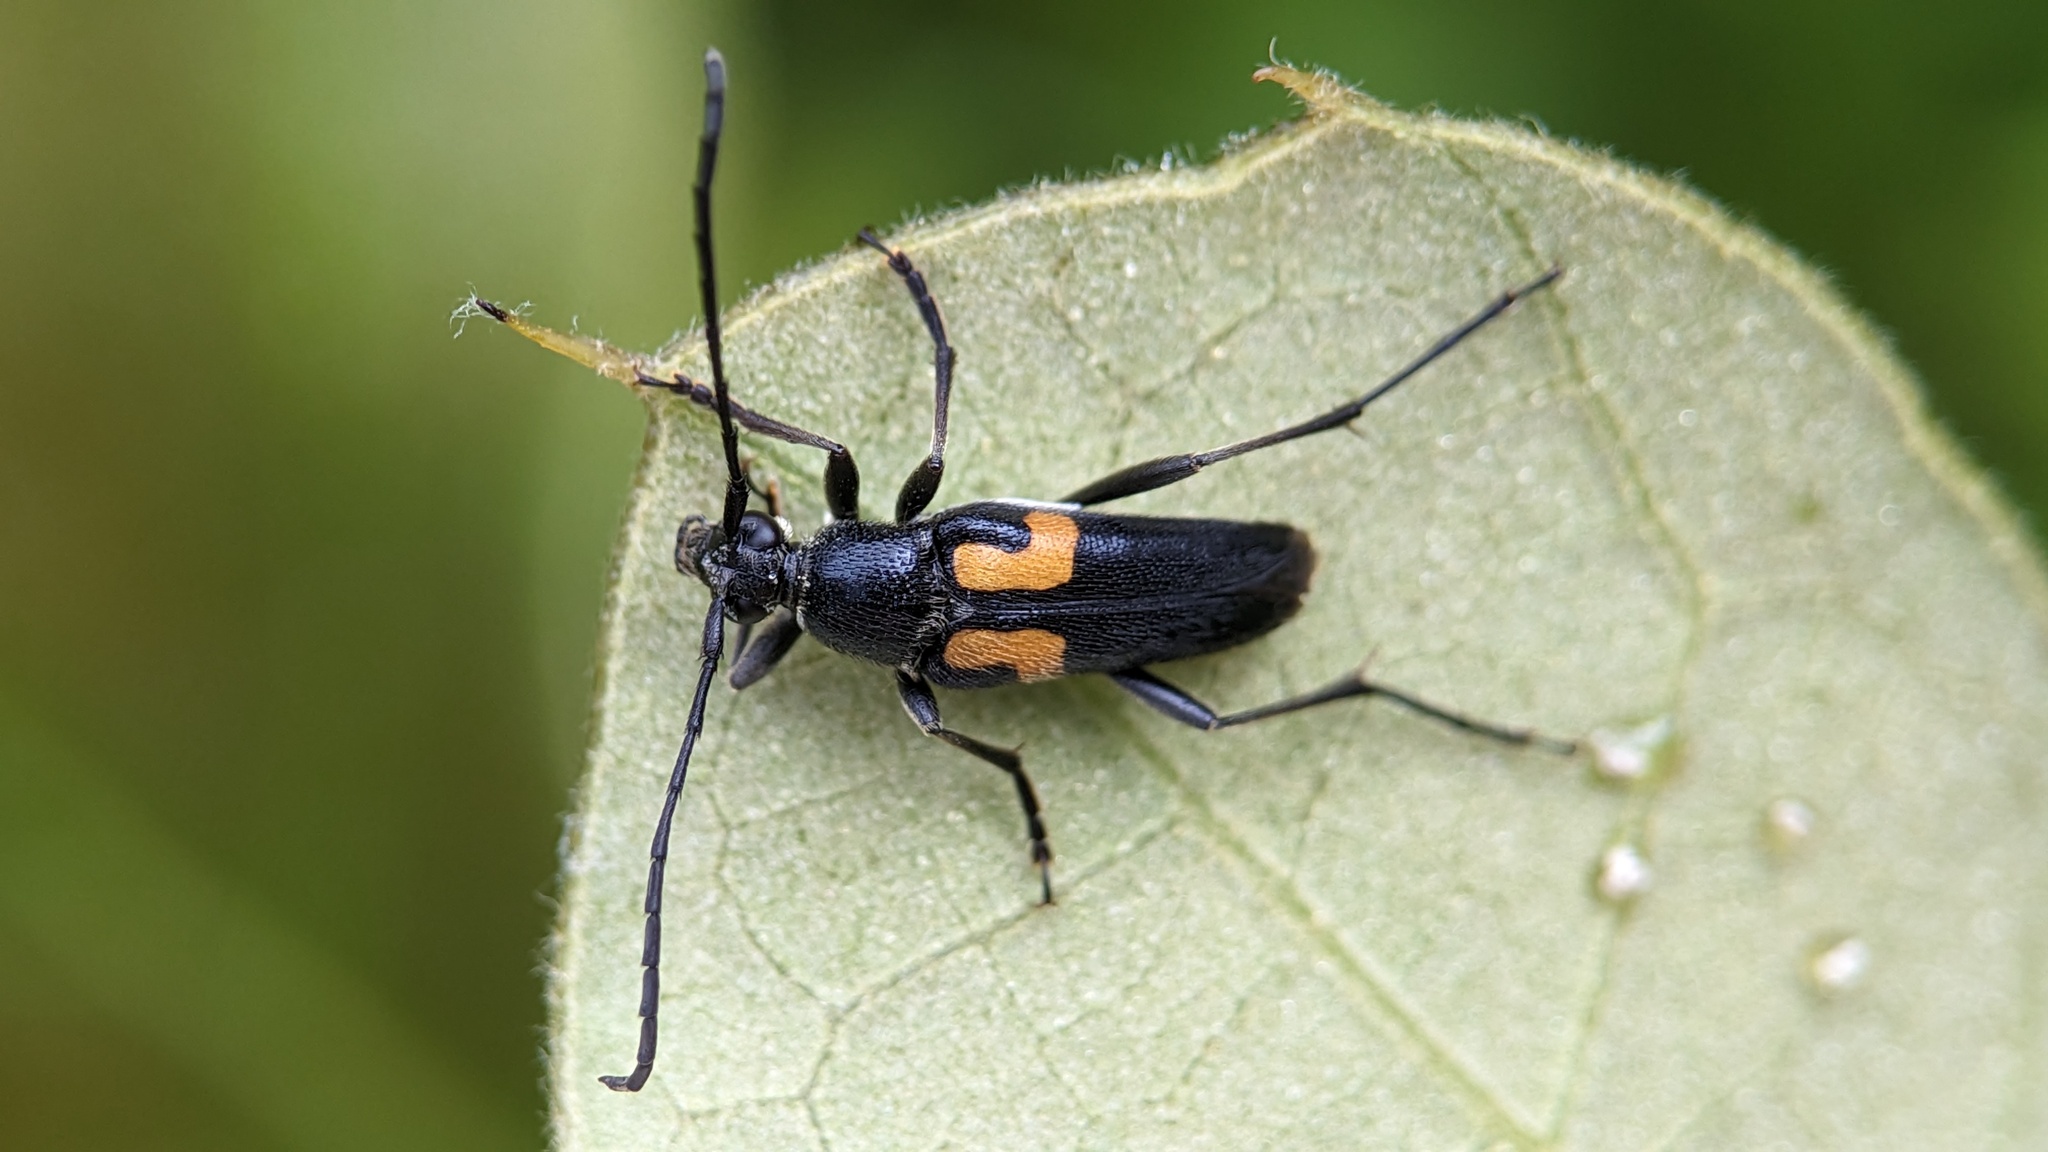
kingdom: Animalia
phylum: Arthropoda
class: Insecta
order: Coleoptera
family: Cerambycidae
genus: Typocerus
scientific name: Typocerus lunulatus
